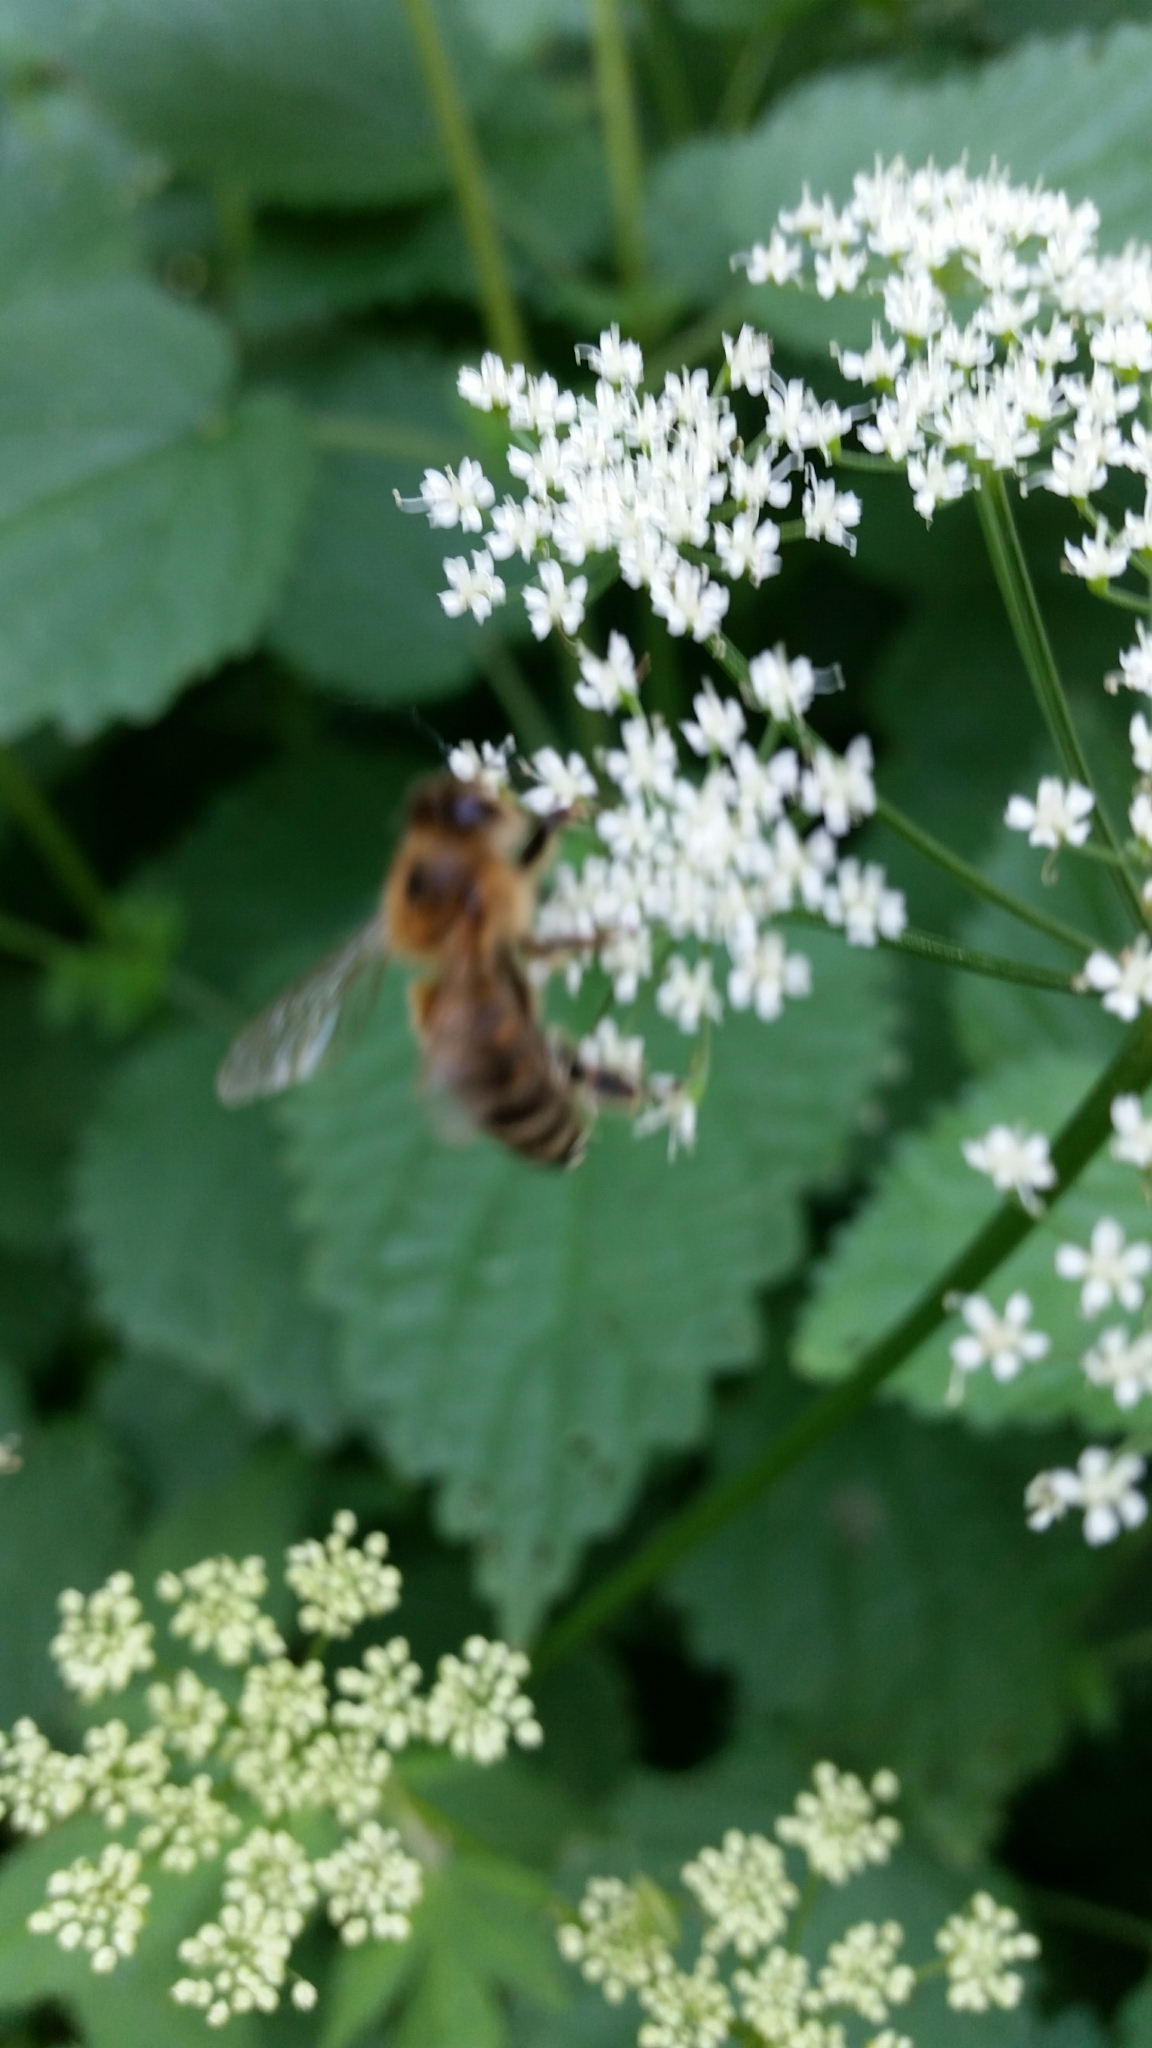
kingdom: Animalia
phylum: Arthropoda
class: Insecta
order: Hymenoptera
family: Apidae
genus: Apis
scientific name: Apis mellifera
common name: Honey bee
